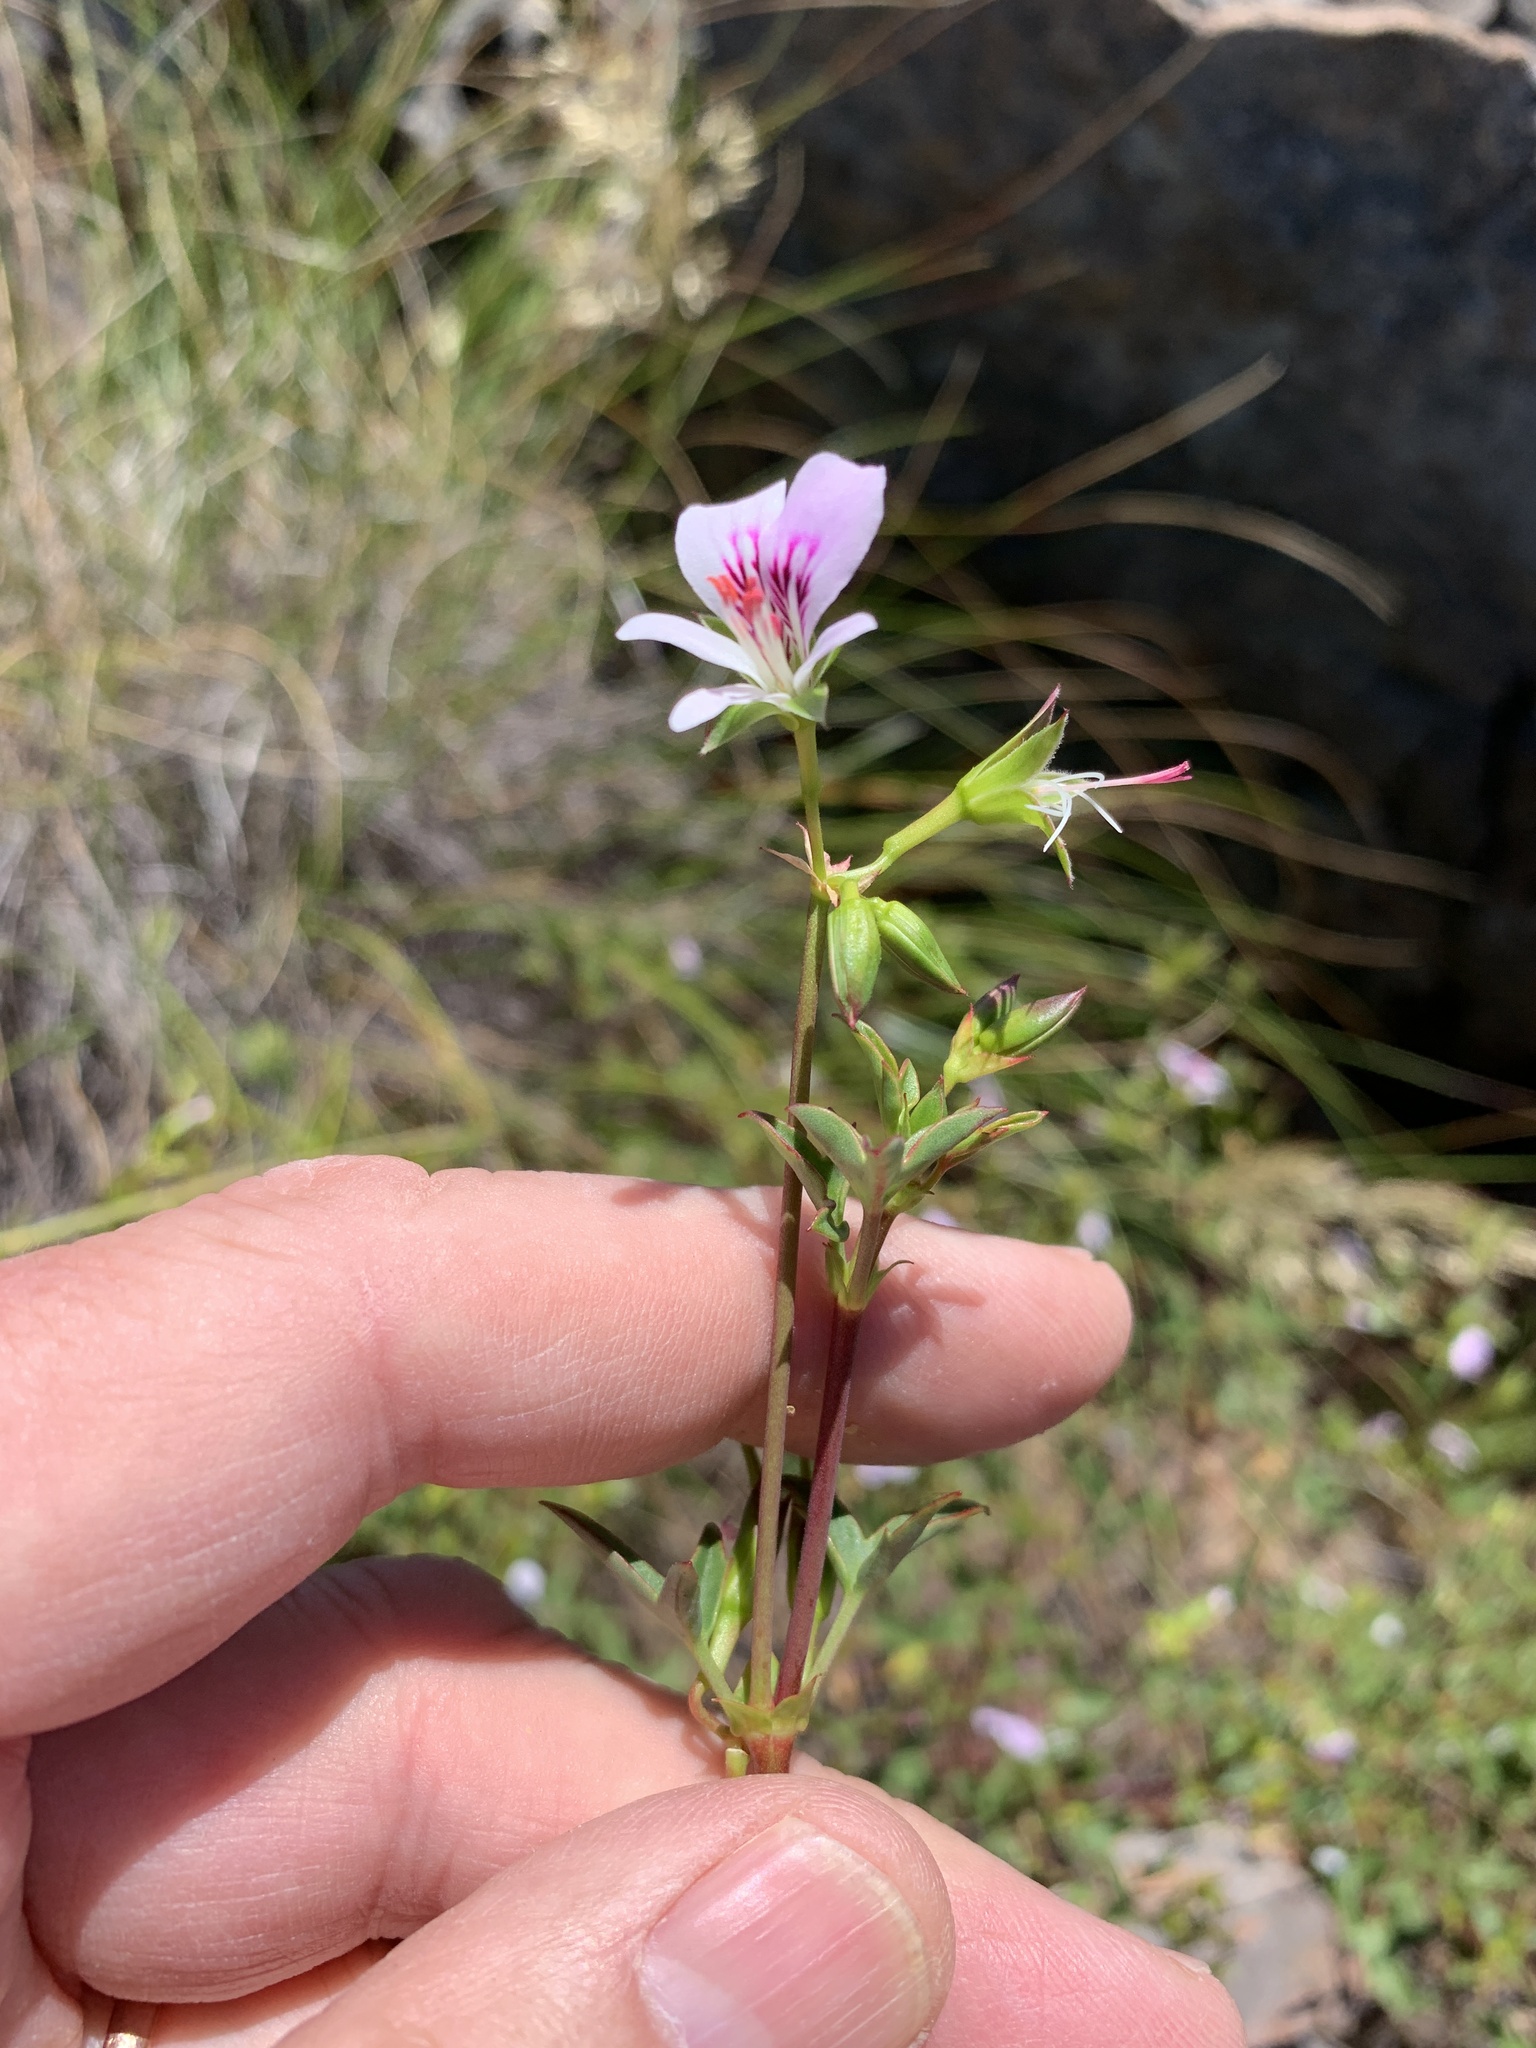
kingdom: Plantae
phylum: Tracheophyta
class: Magnoliopsida
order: Geraniales
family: Geraniaceae
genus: Pelargonium
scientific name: Pelargonium scabrum
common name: Apricot geranium
